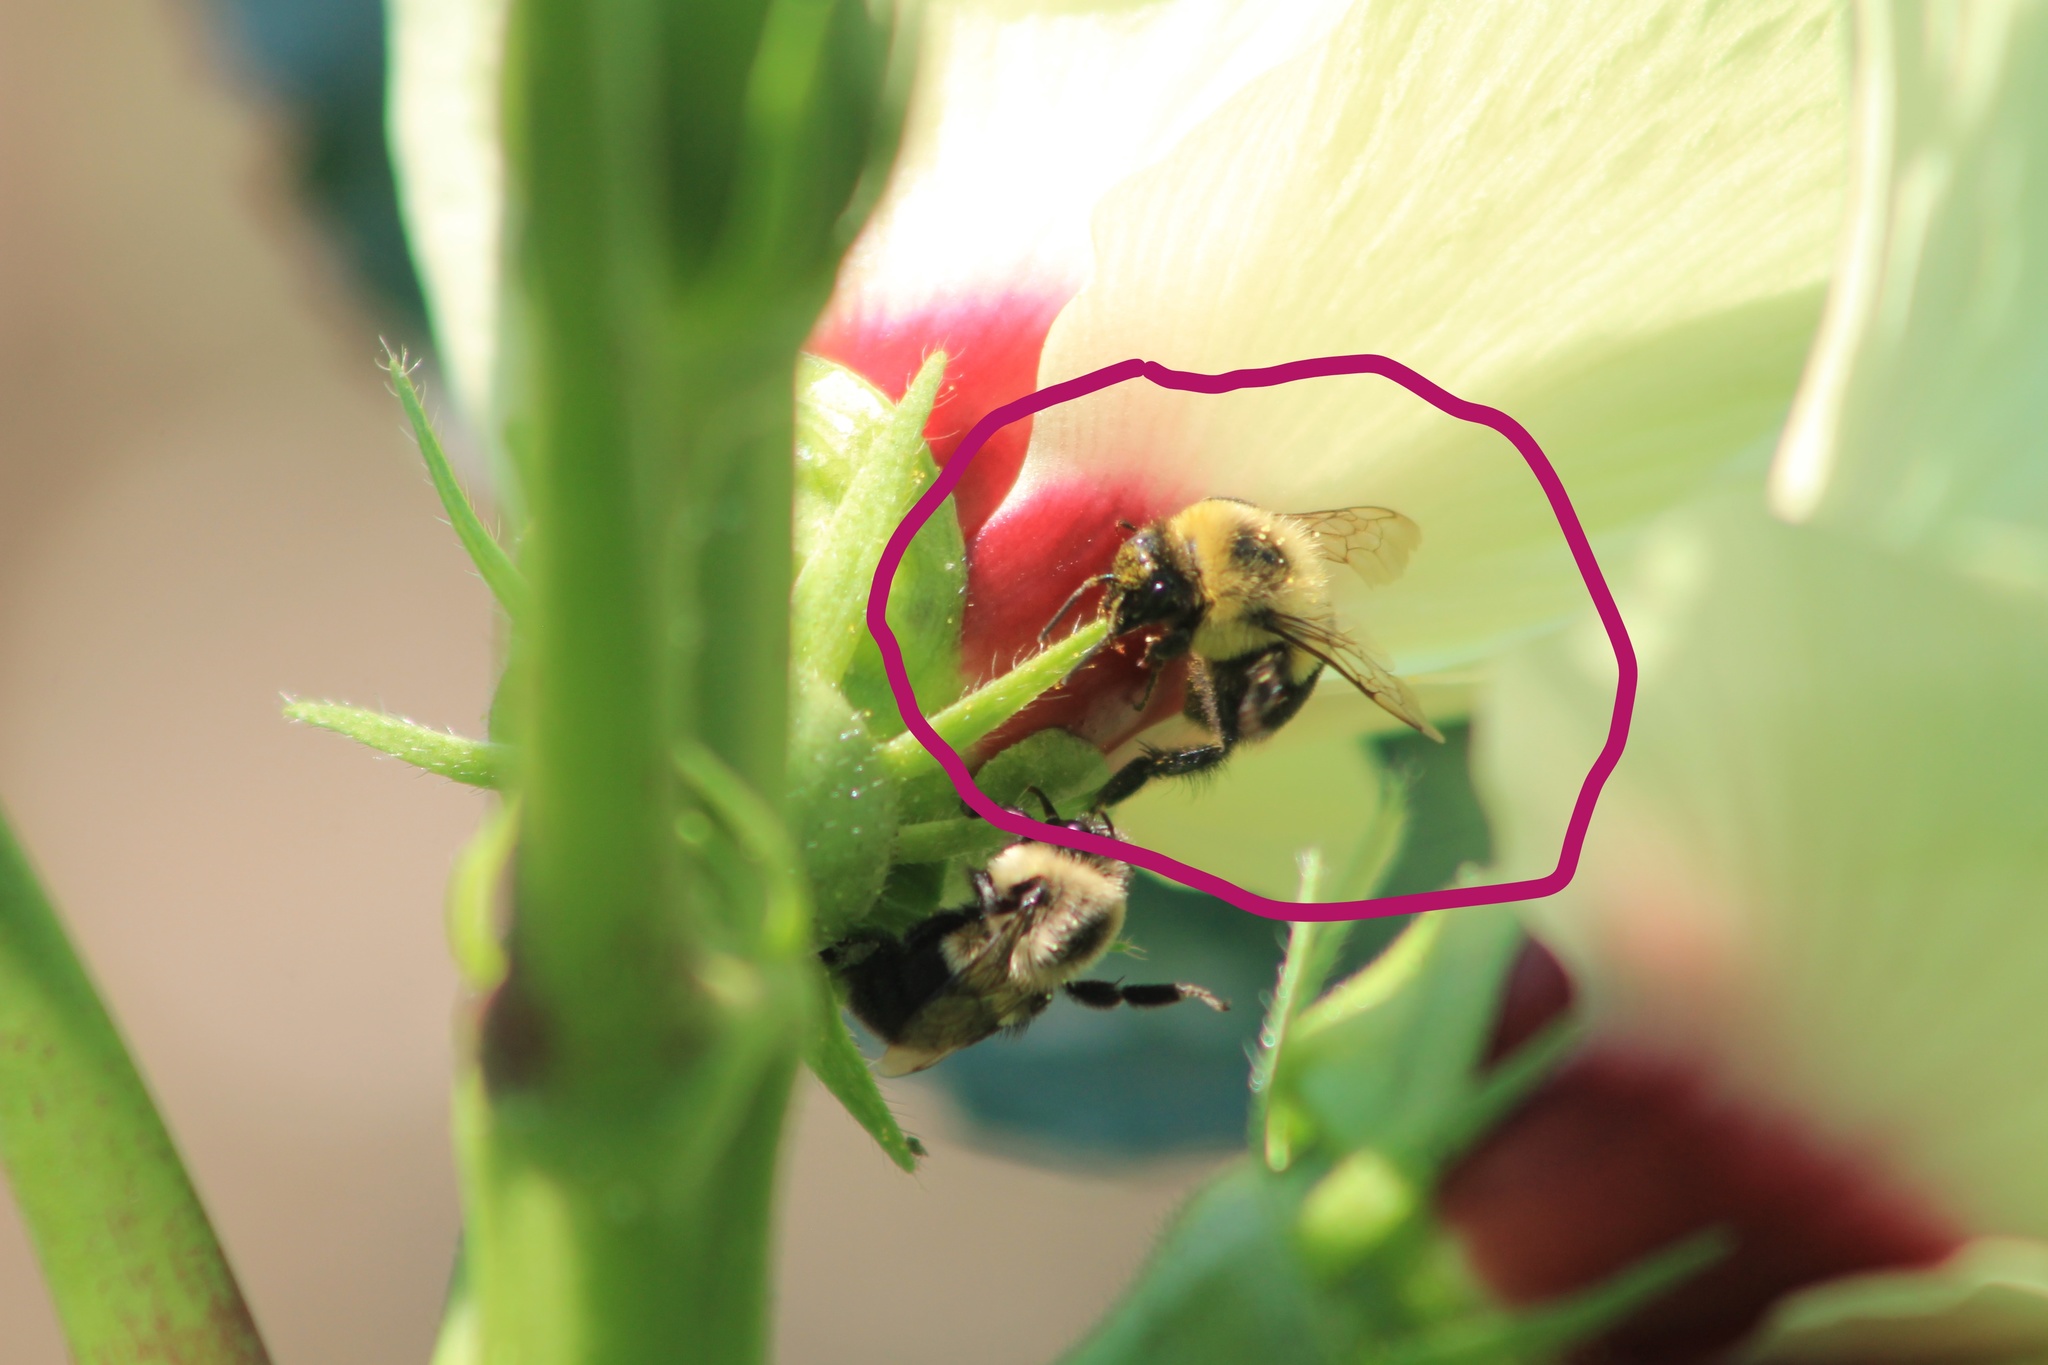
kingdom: Animalia
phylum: Arthropoda
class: Insecta
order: Hymenoptera
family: Apidae
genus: Bombus
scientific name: Bombus impatiens
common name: Common eastern bumble bee
